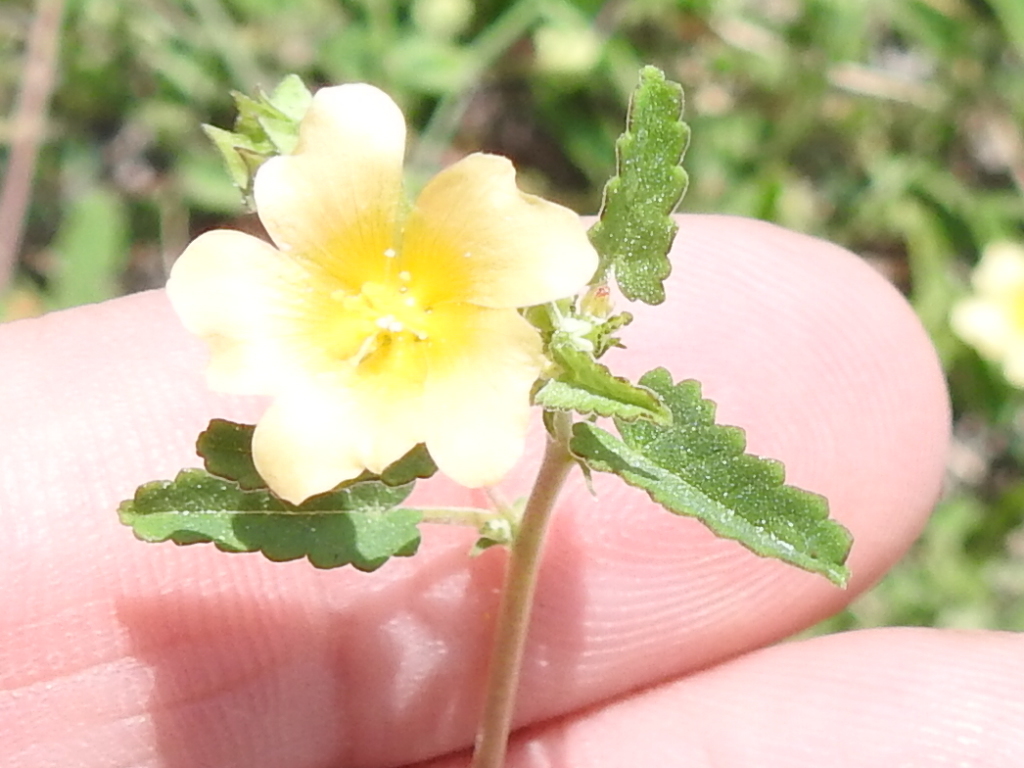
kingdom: Plantae
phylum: Tracheophyta
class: Magnoliopsida
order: Malvales
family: Malvaceae
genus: Sida
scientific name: Sida abutilifolia
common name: Spreading fanpetals
